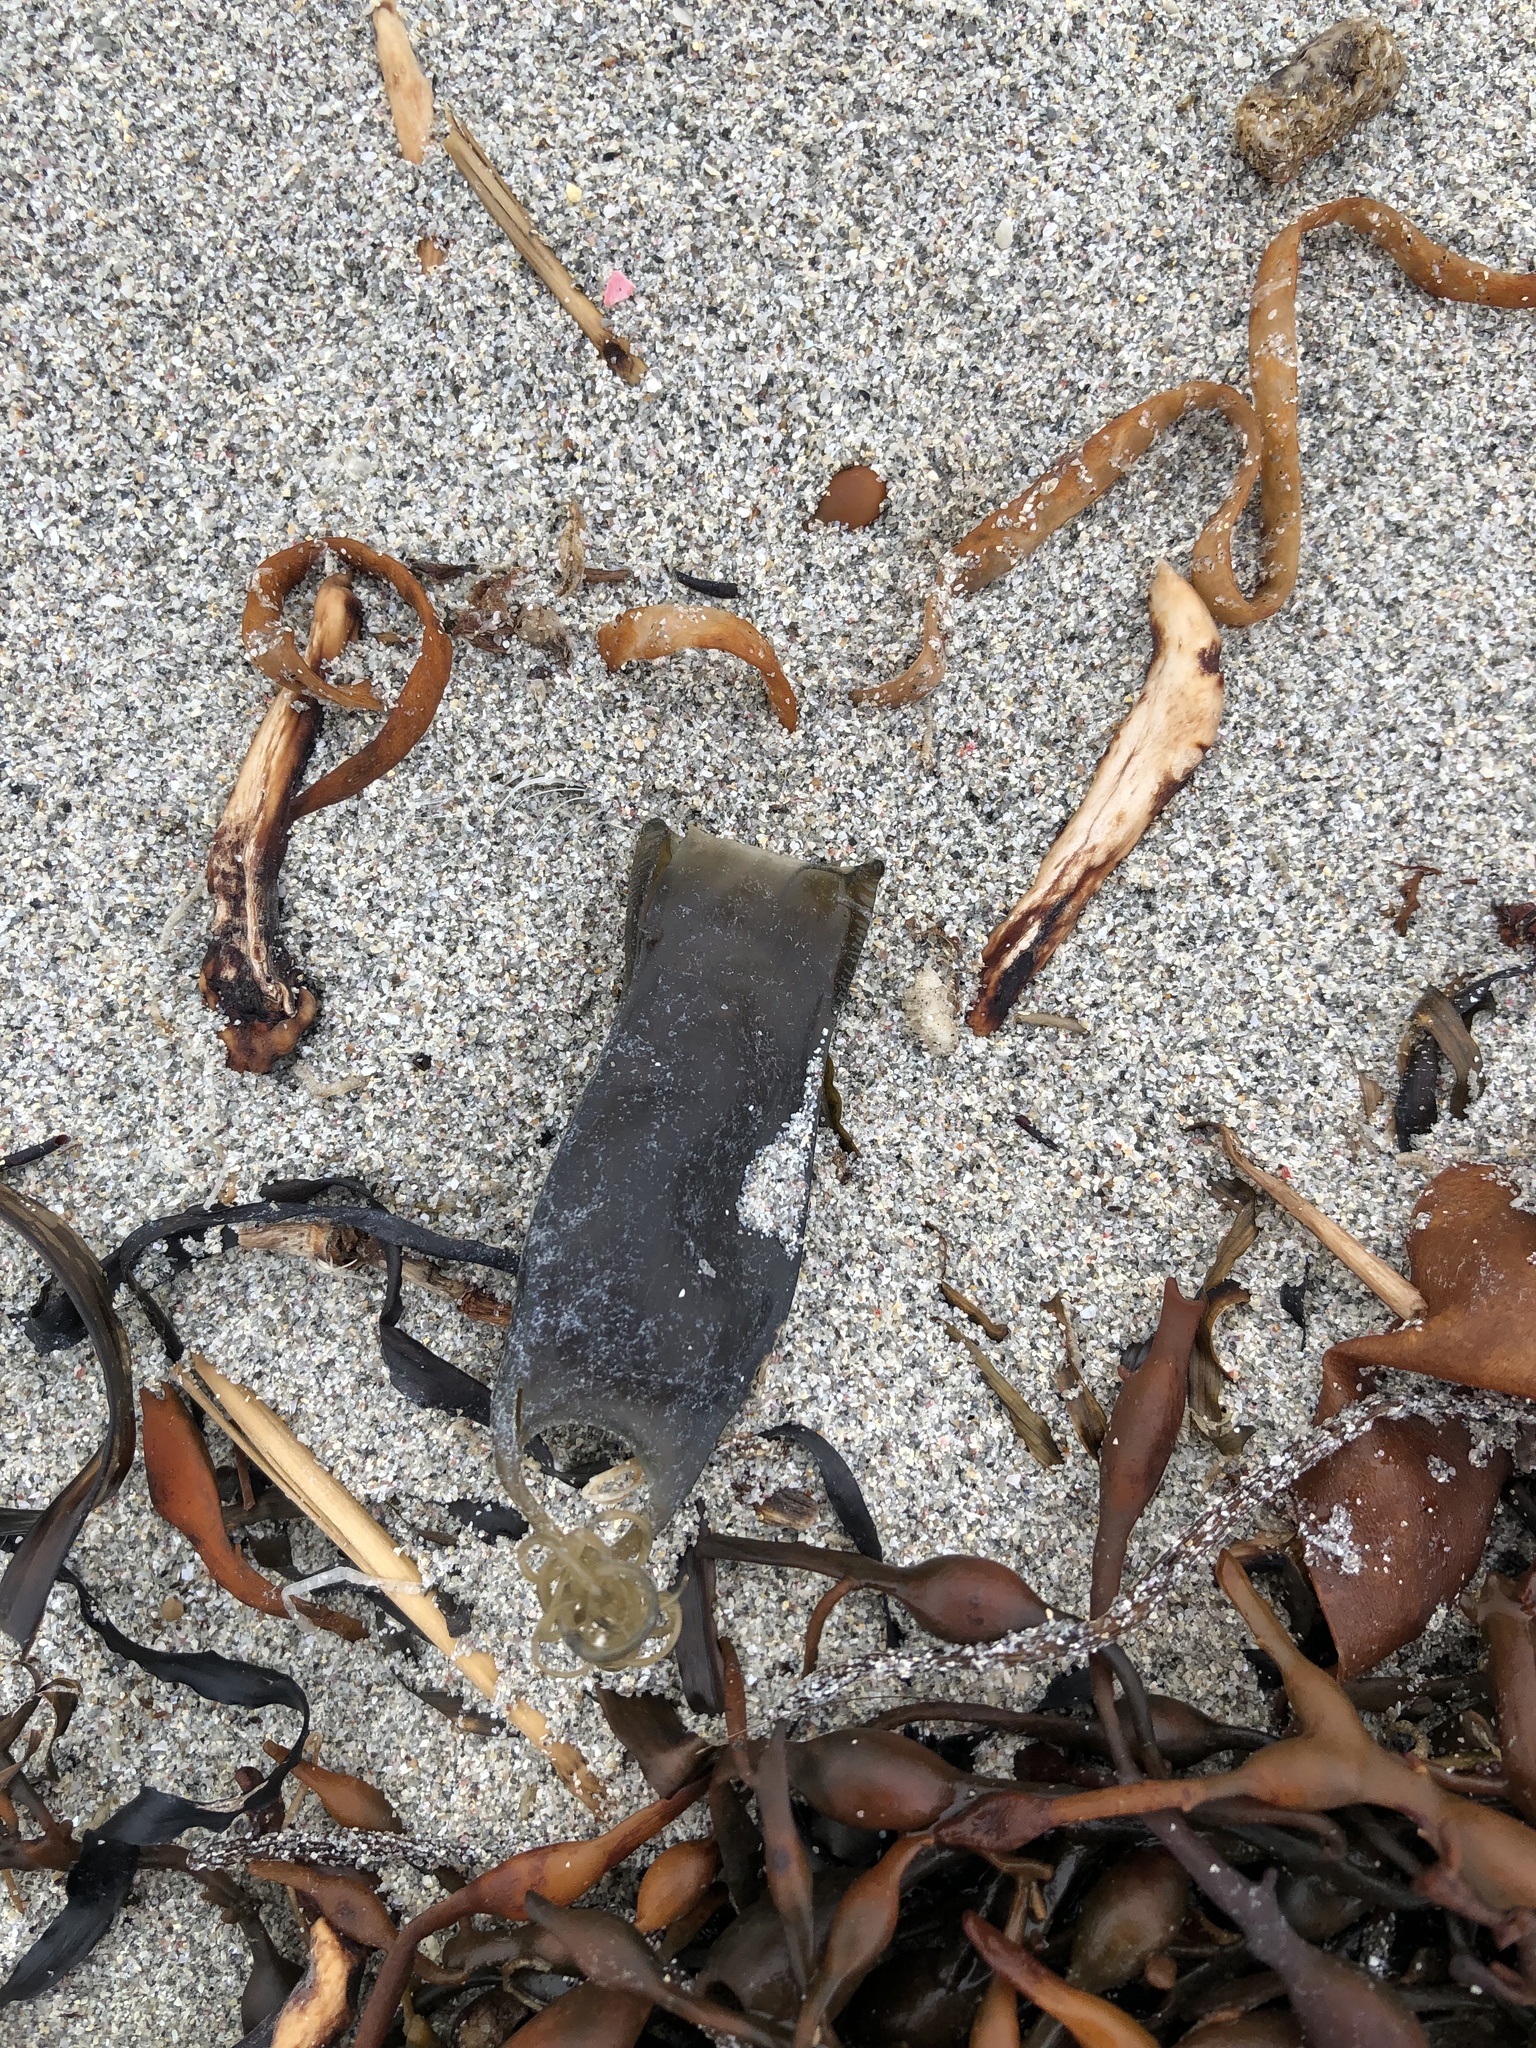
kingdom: Animalia
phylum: Chordata
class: Elasmobranchii
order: Carcharhiniformes
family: Scyliorhinidae
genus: Scyliorhinus
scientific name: Scyliorhinus canicula
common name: Lesser spotted dogfish
